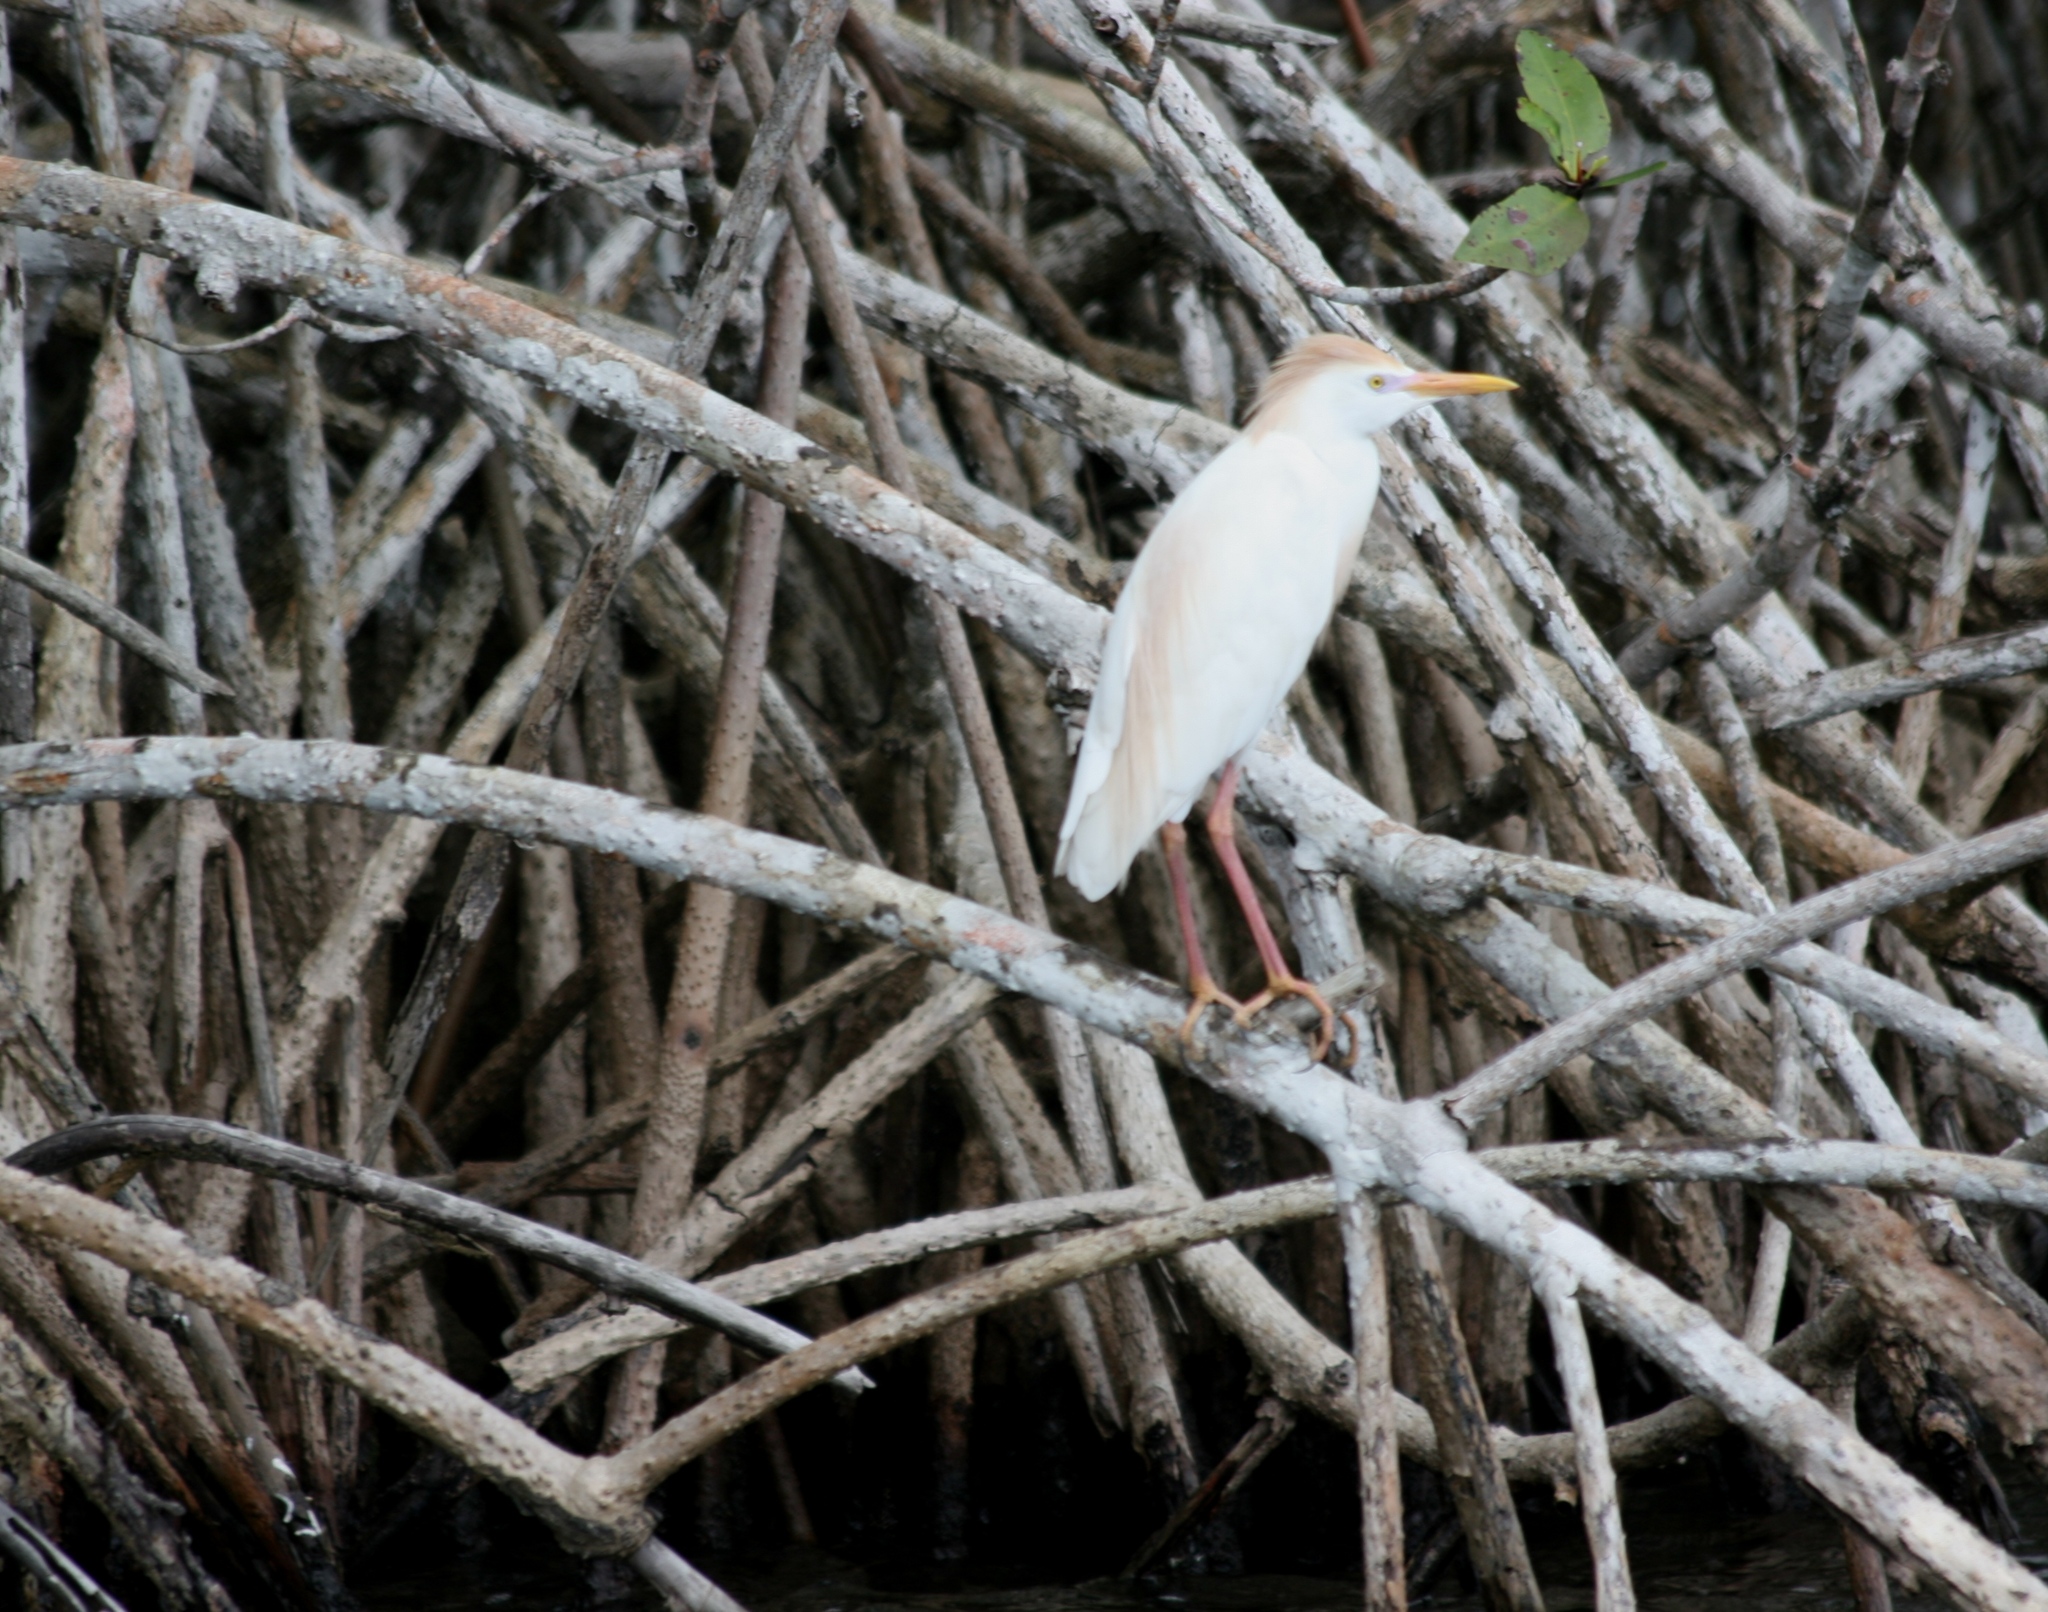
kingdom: Animalia
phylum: Chordata
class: Aves
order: Pelecaniformes
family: Ardeidae
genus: Bubulcus
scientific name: Bubulcus ibis
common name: Cattle egret
